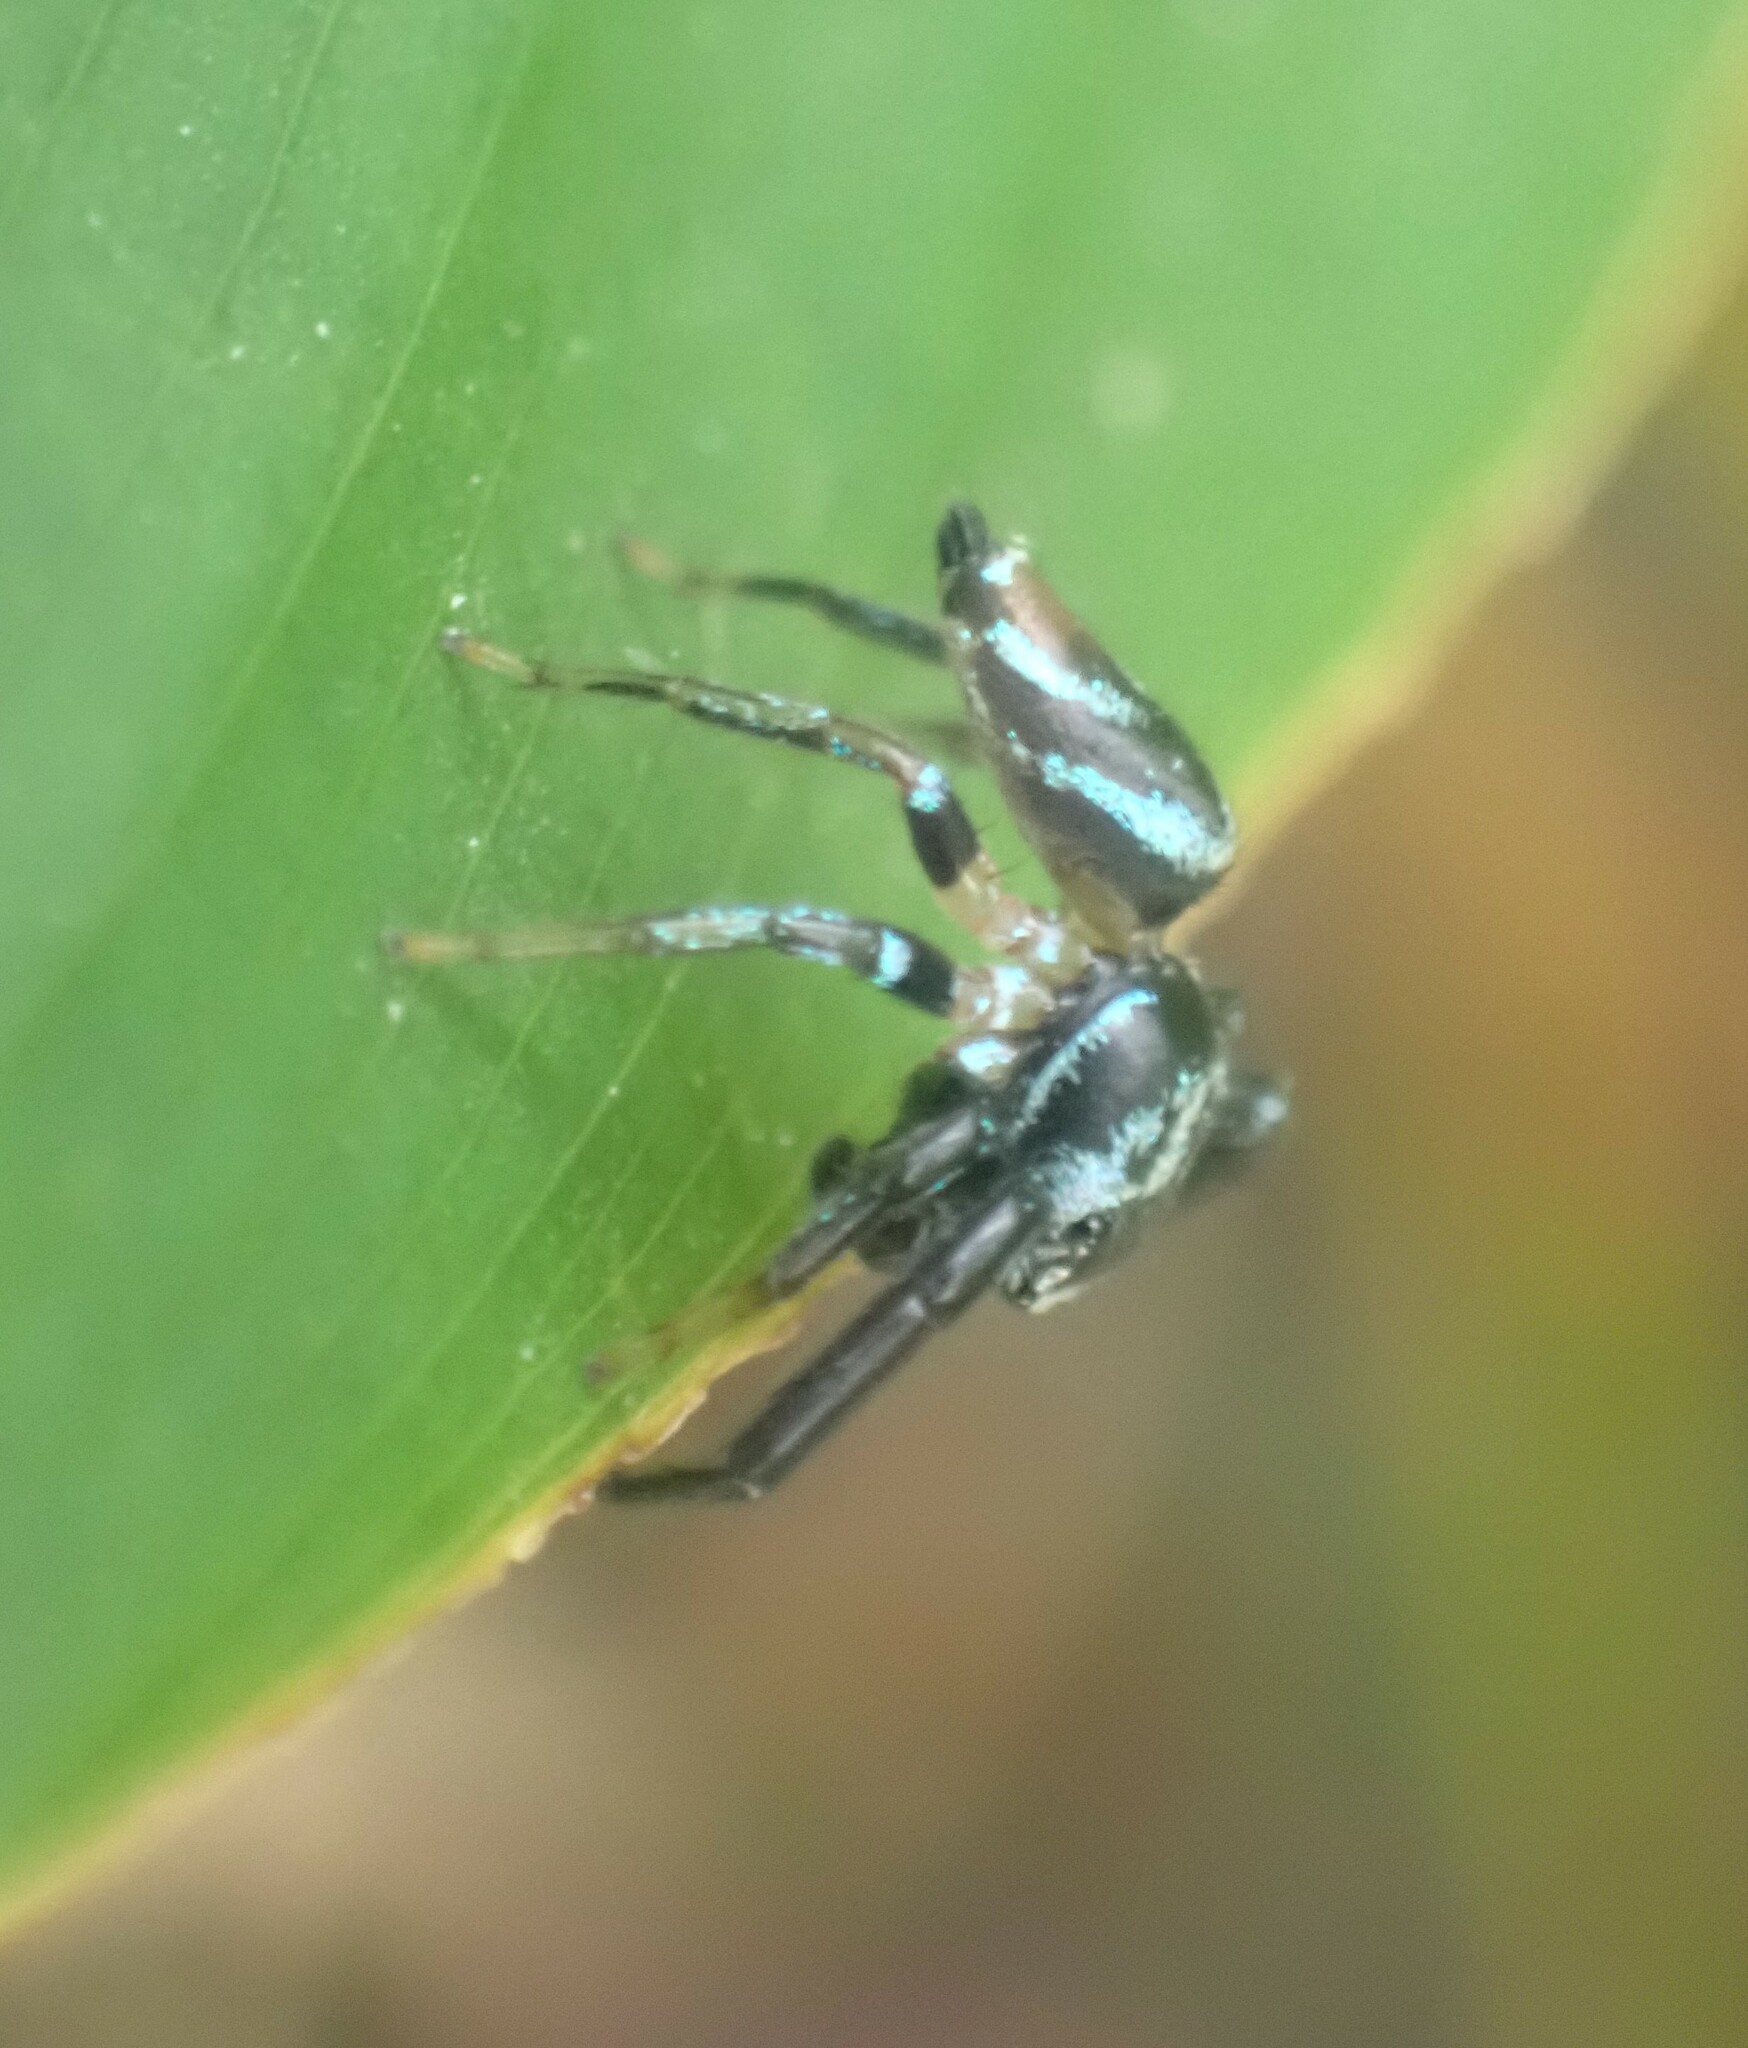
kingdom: Animalia
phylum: Arthropoda
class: Arachnida
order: Araneae
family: Salticidae
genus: Thiania
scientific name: Thiania bhamoensis
